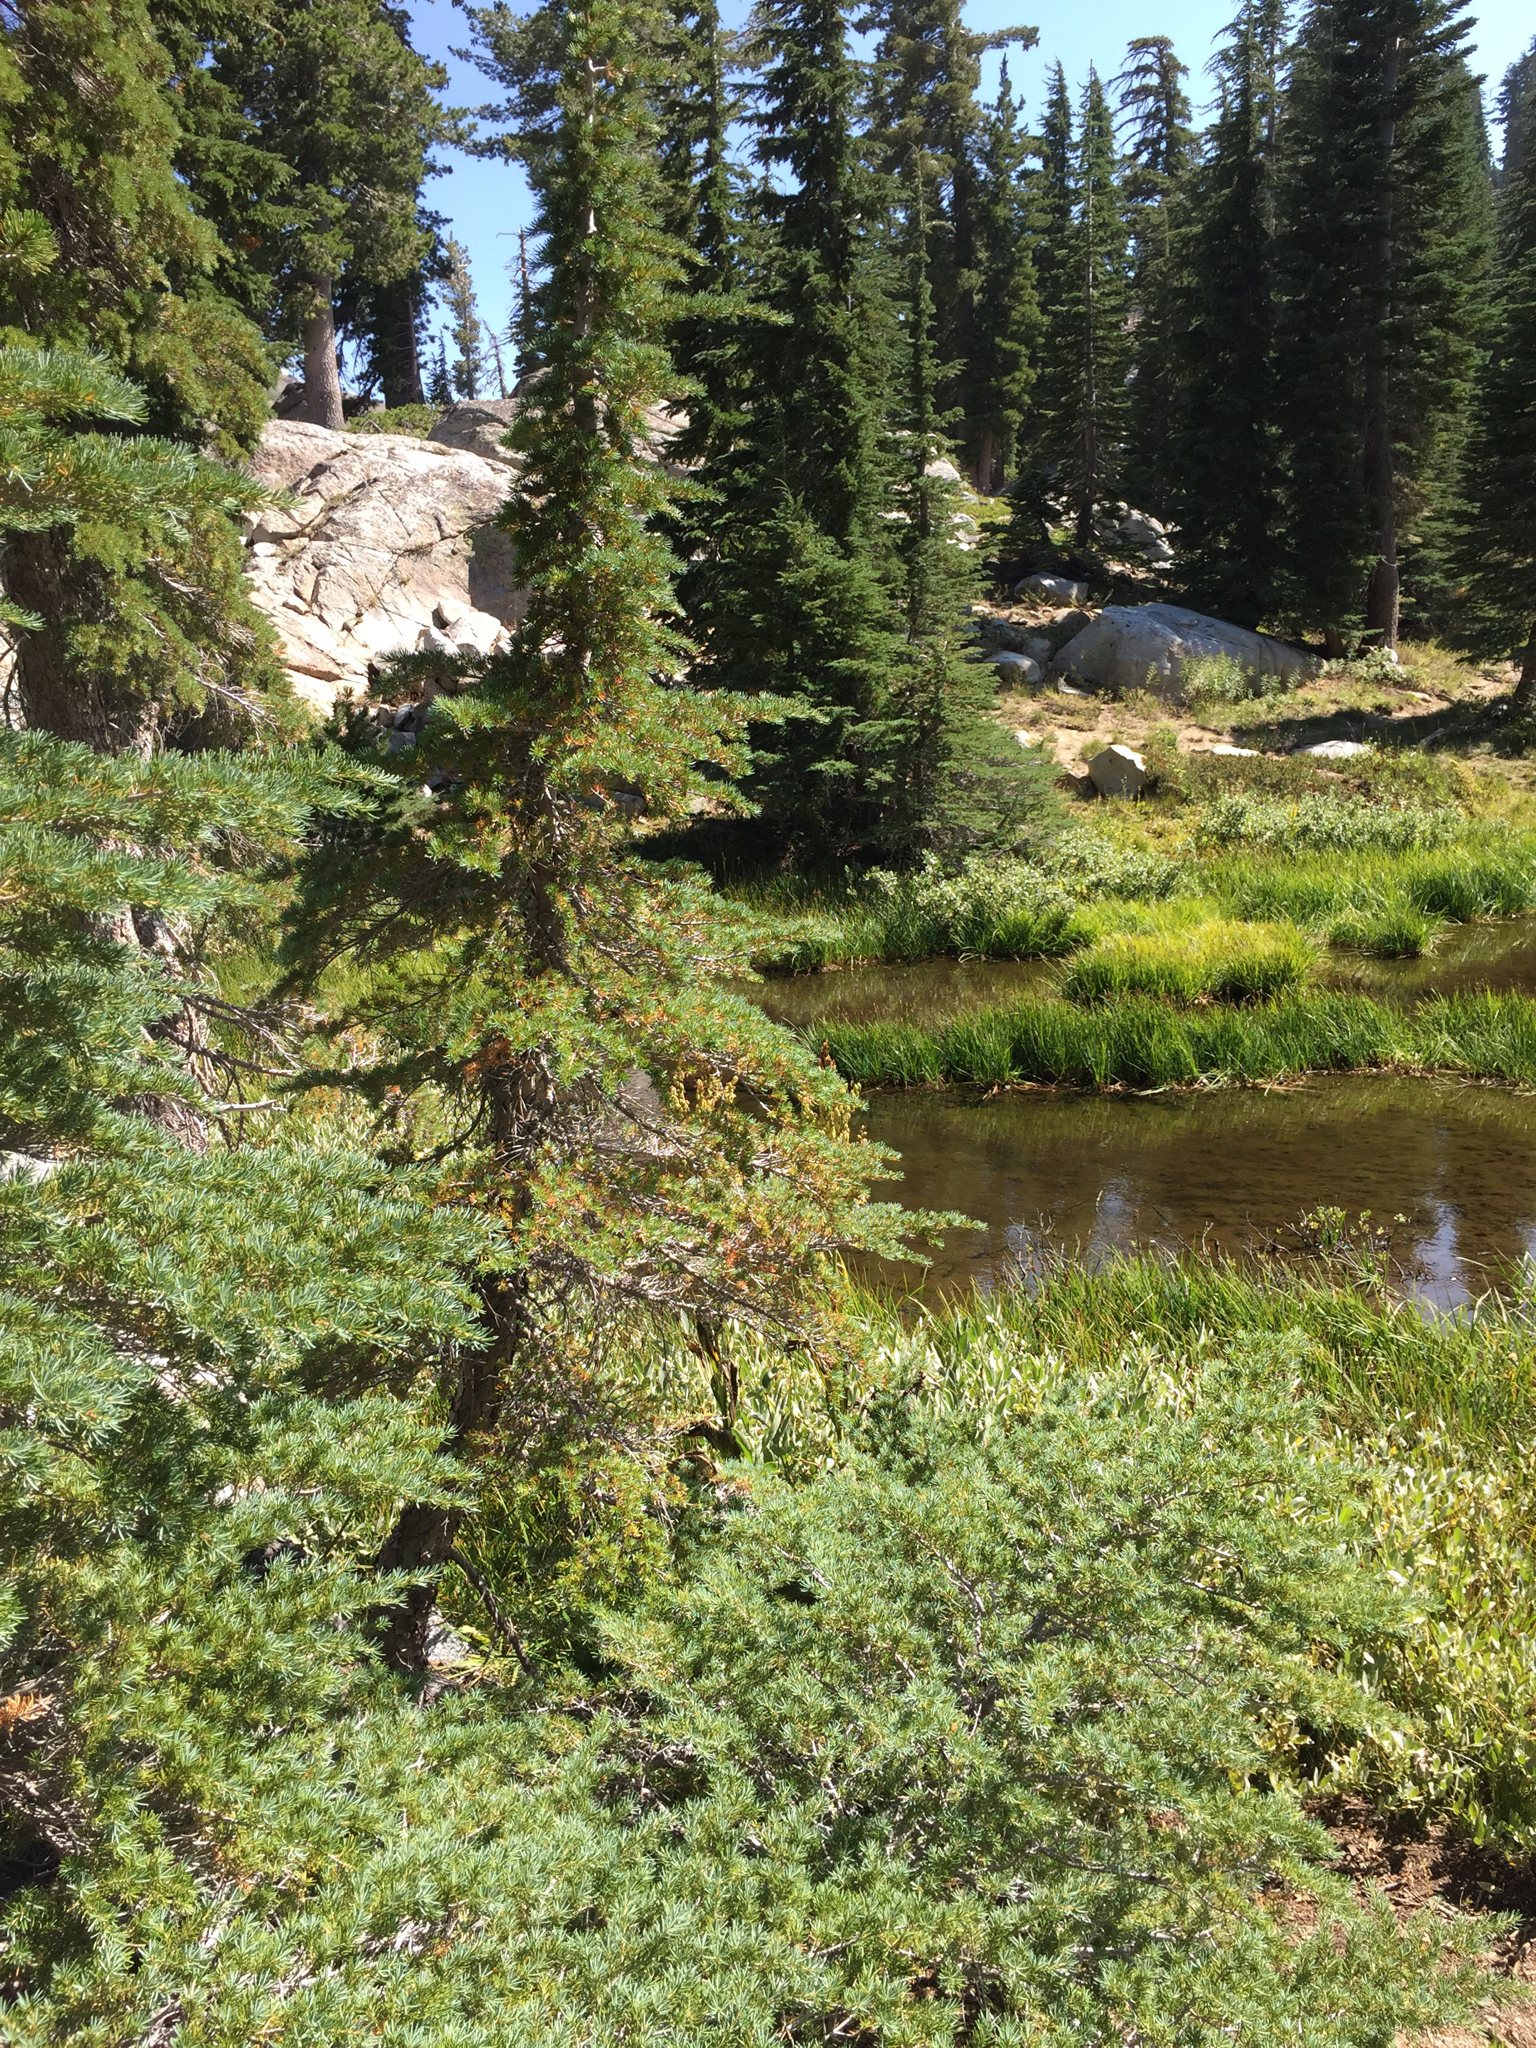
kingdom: Plantae
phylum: Tracheophyta
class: Pinopsida
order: Pinales
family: Pinaceae
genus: Tsuga
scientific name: Tsuga mertensiana
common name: Mountain hemlock
